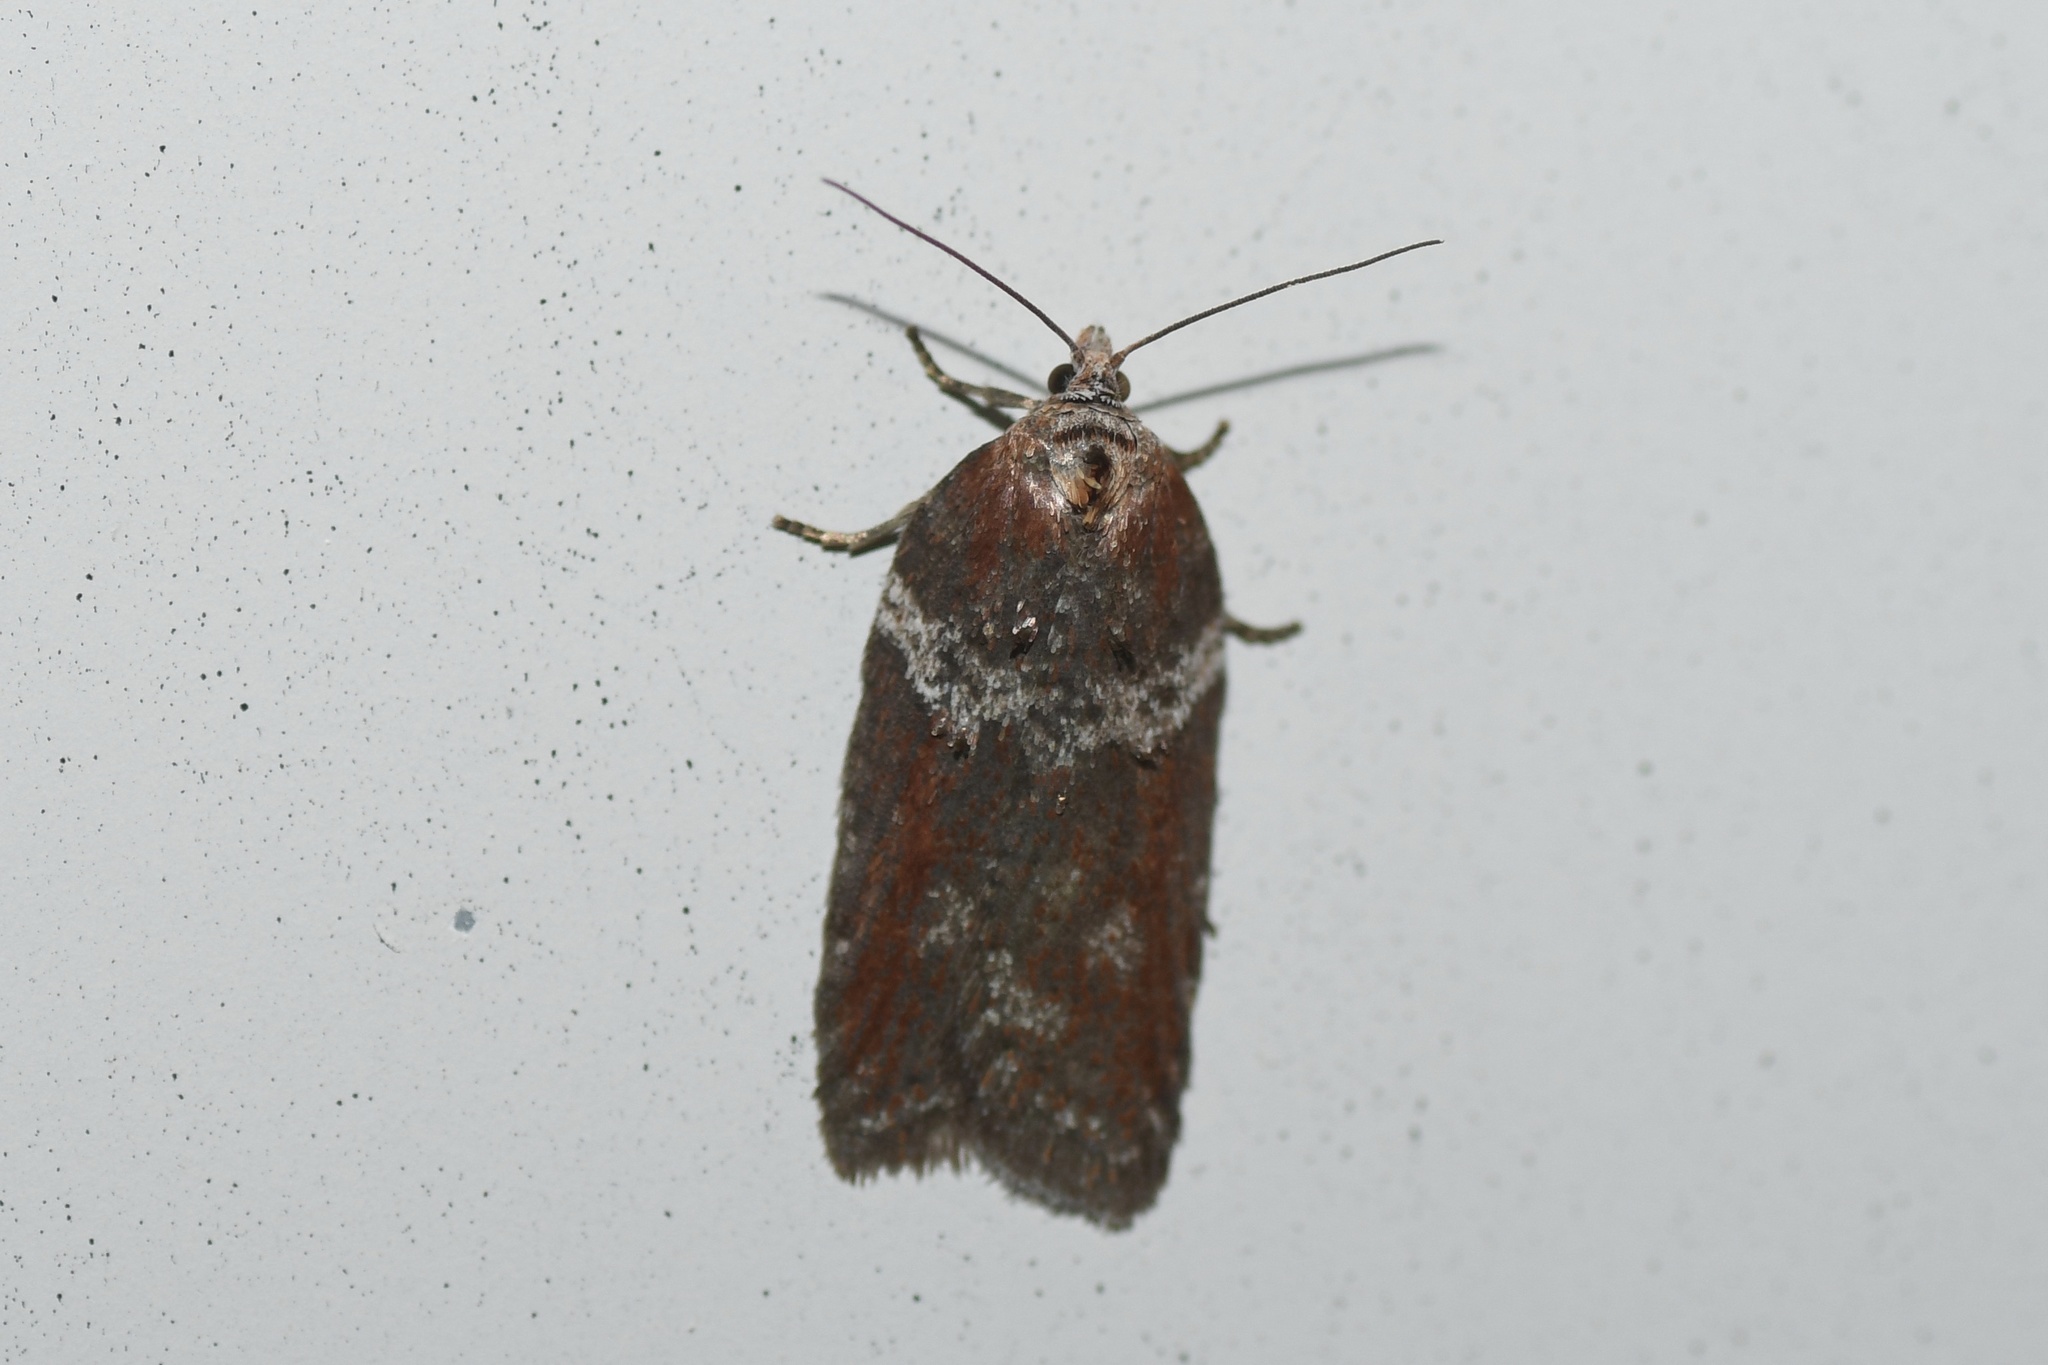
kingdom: Animalia
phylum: Arthropoda
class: Insecta
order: Lepidoptera
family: Tortricidae
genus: Acleris
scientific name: Acleris celiana
